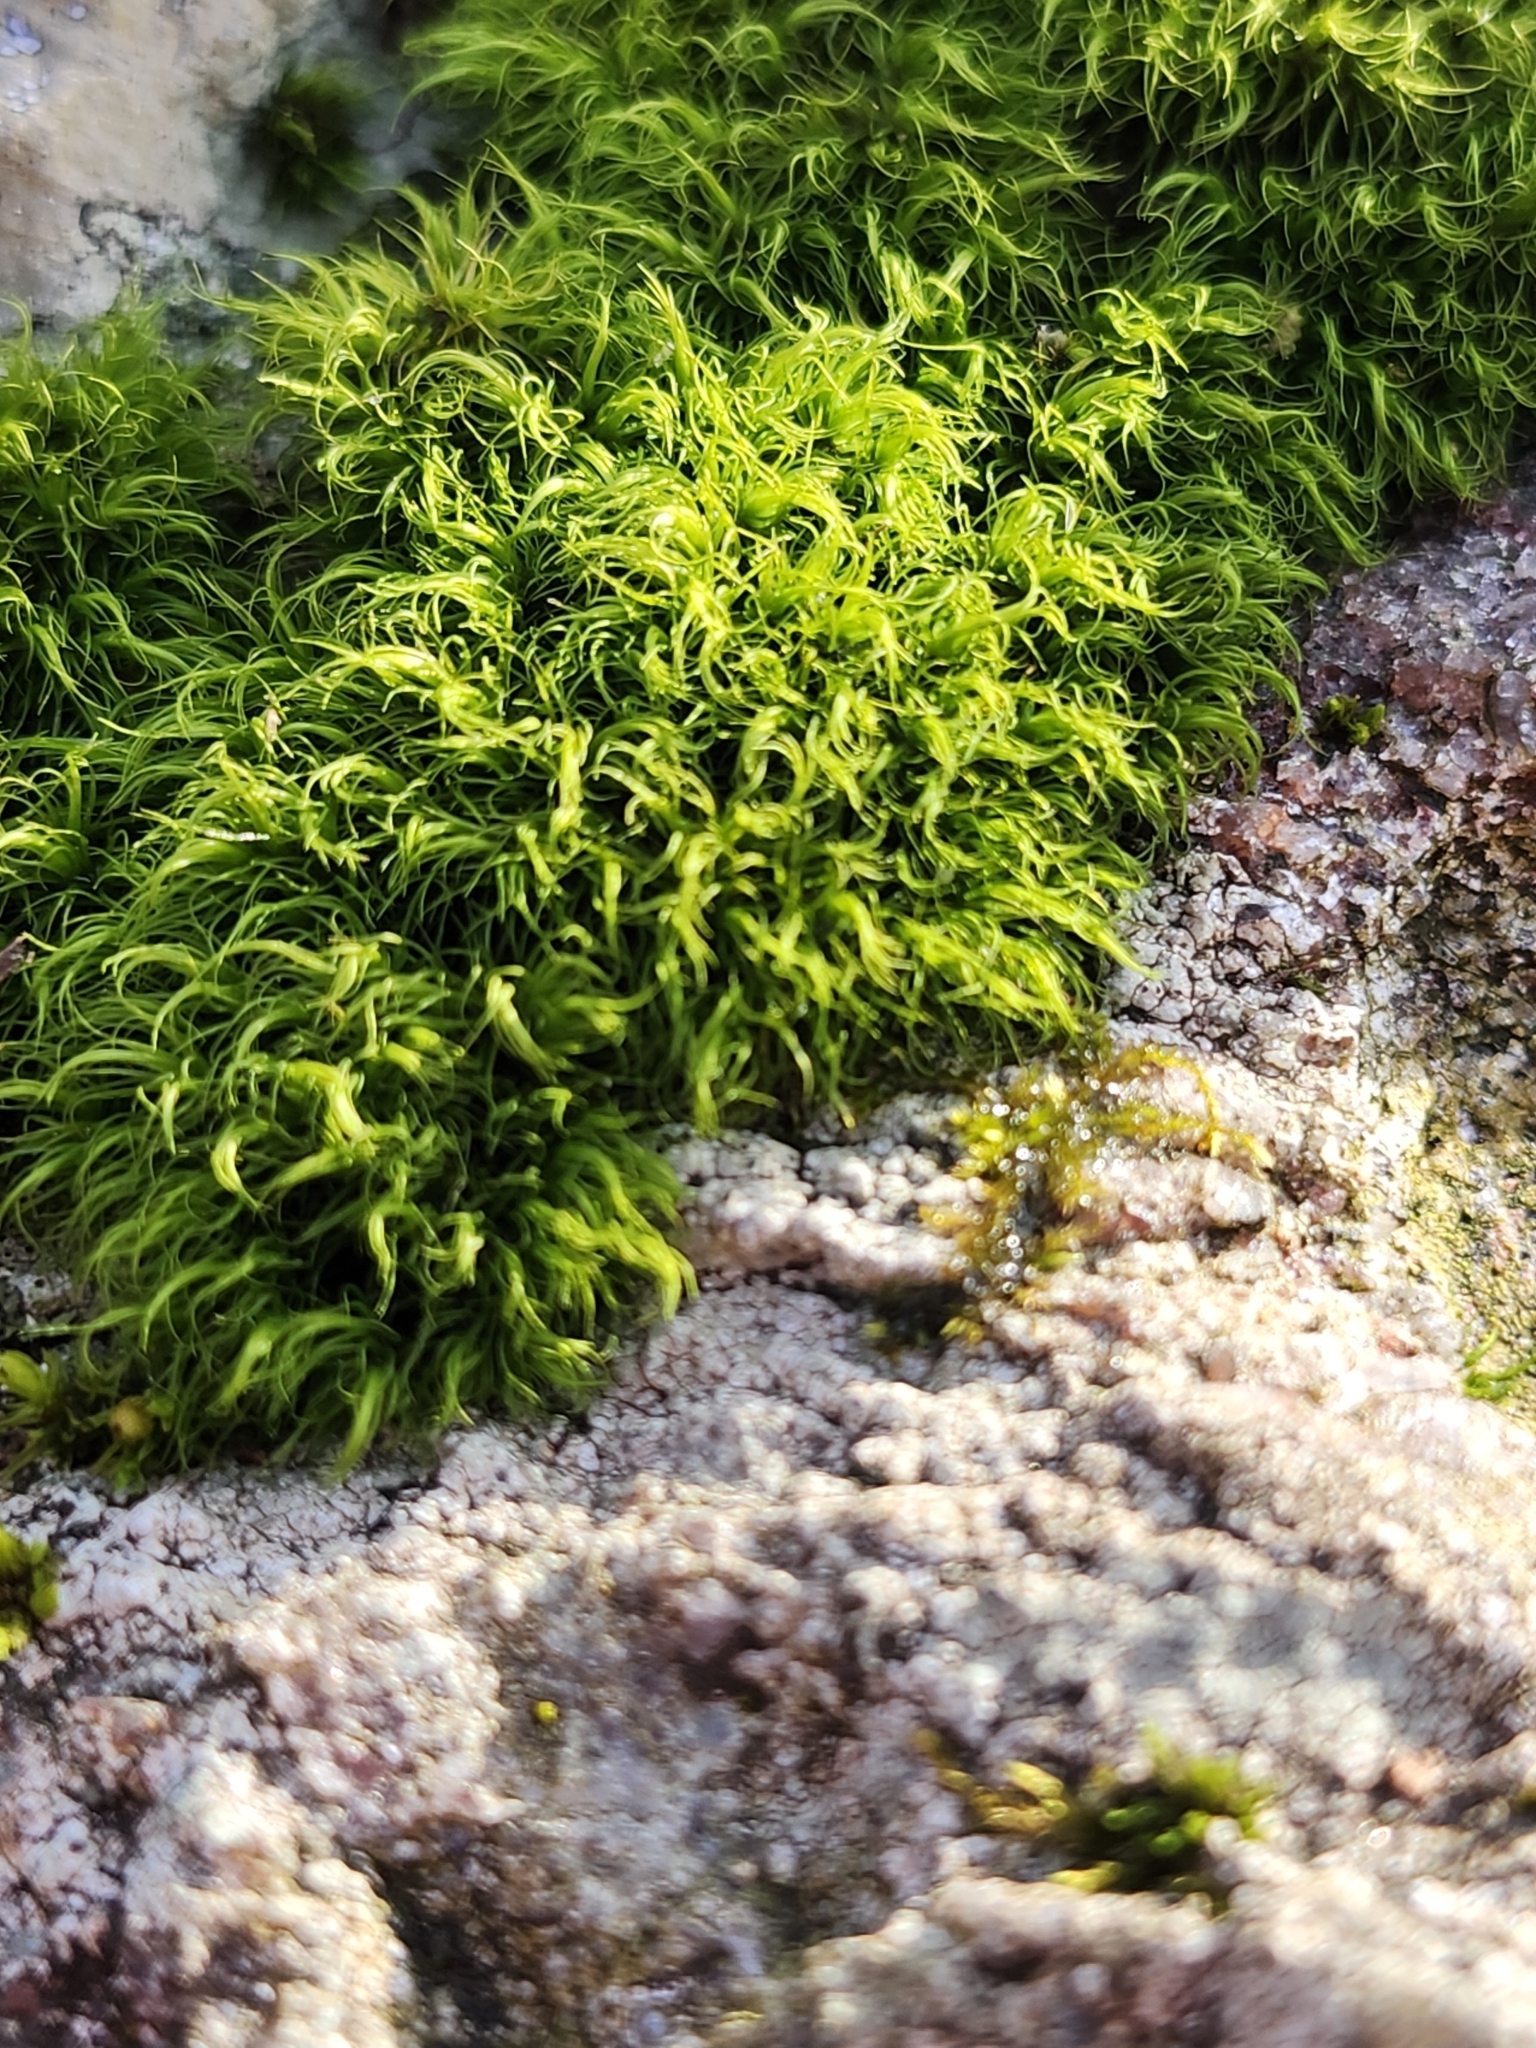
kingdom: Plantae
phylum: Bryophyta
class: Bryopsida
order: Dicranales
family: Dicranaceae
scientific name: Dicranaceae
